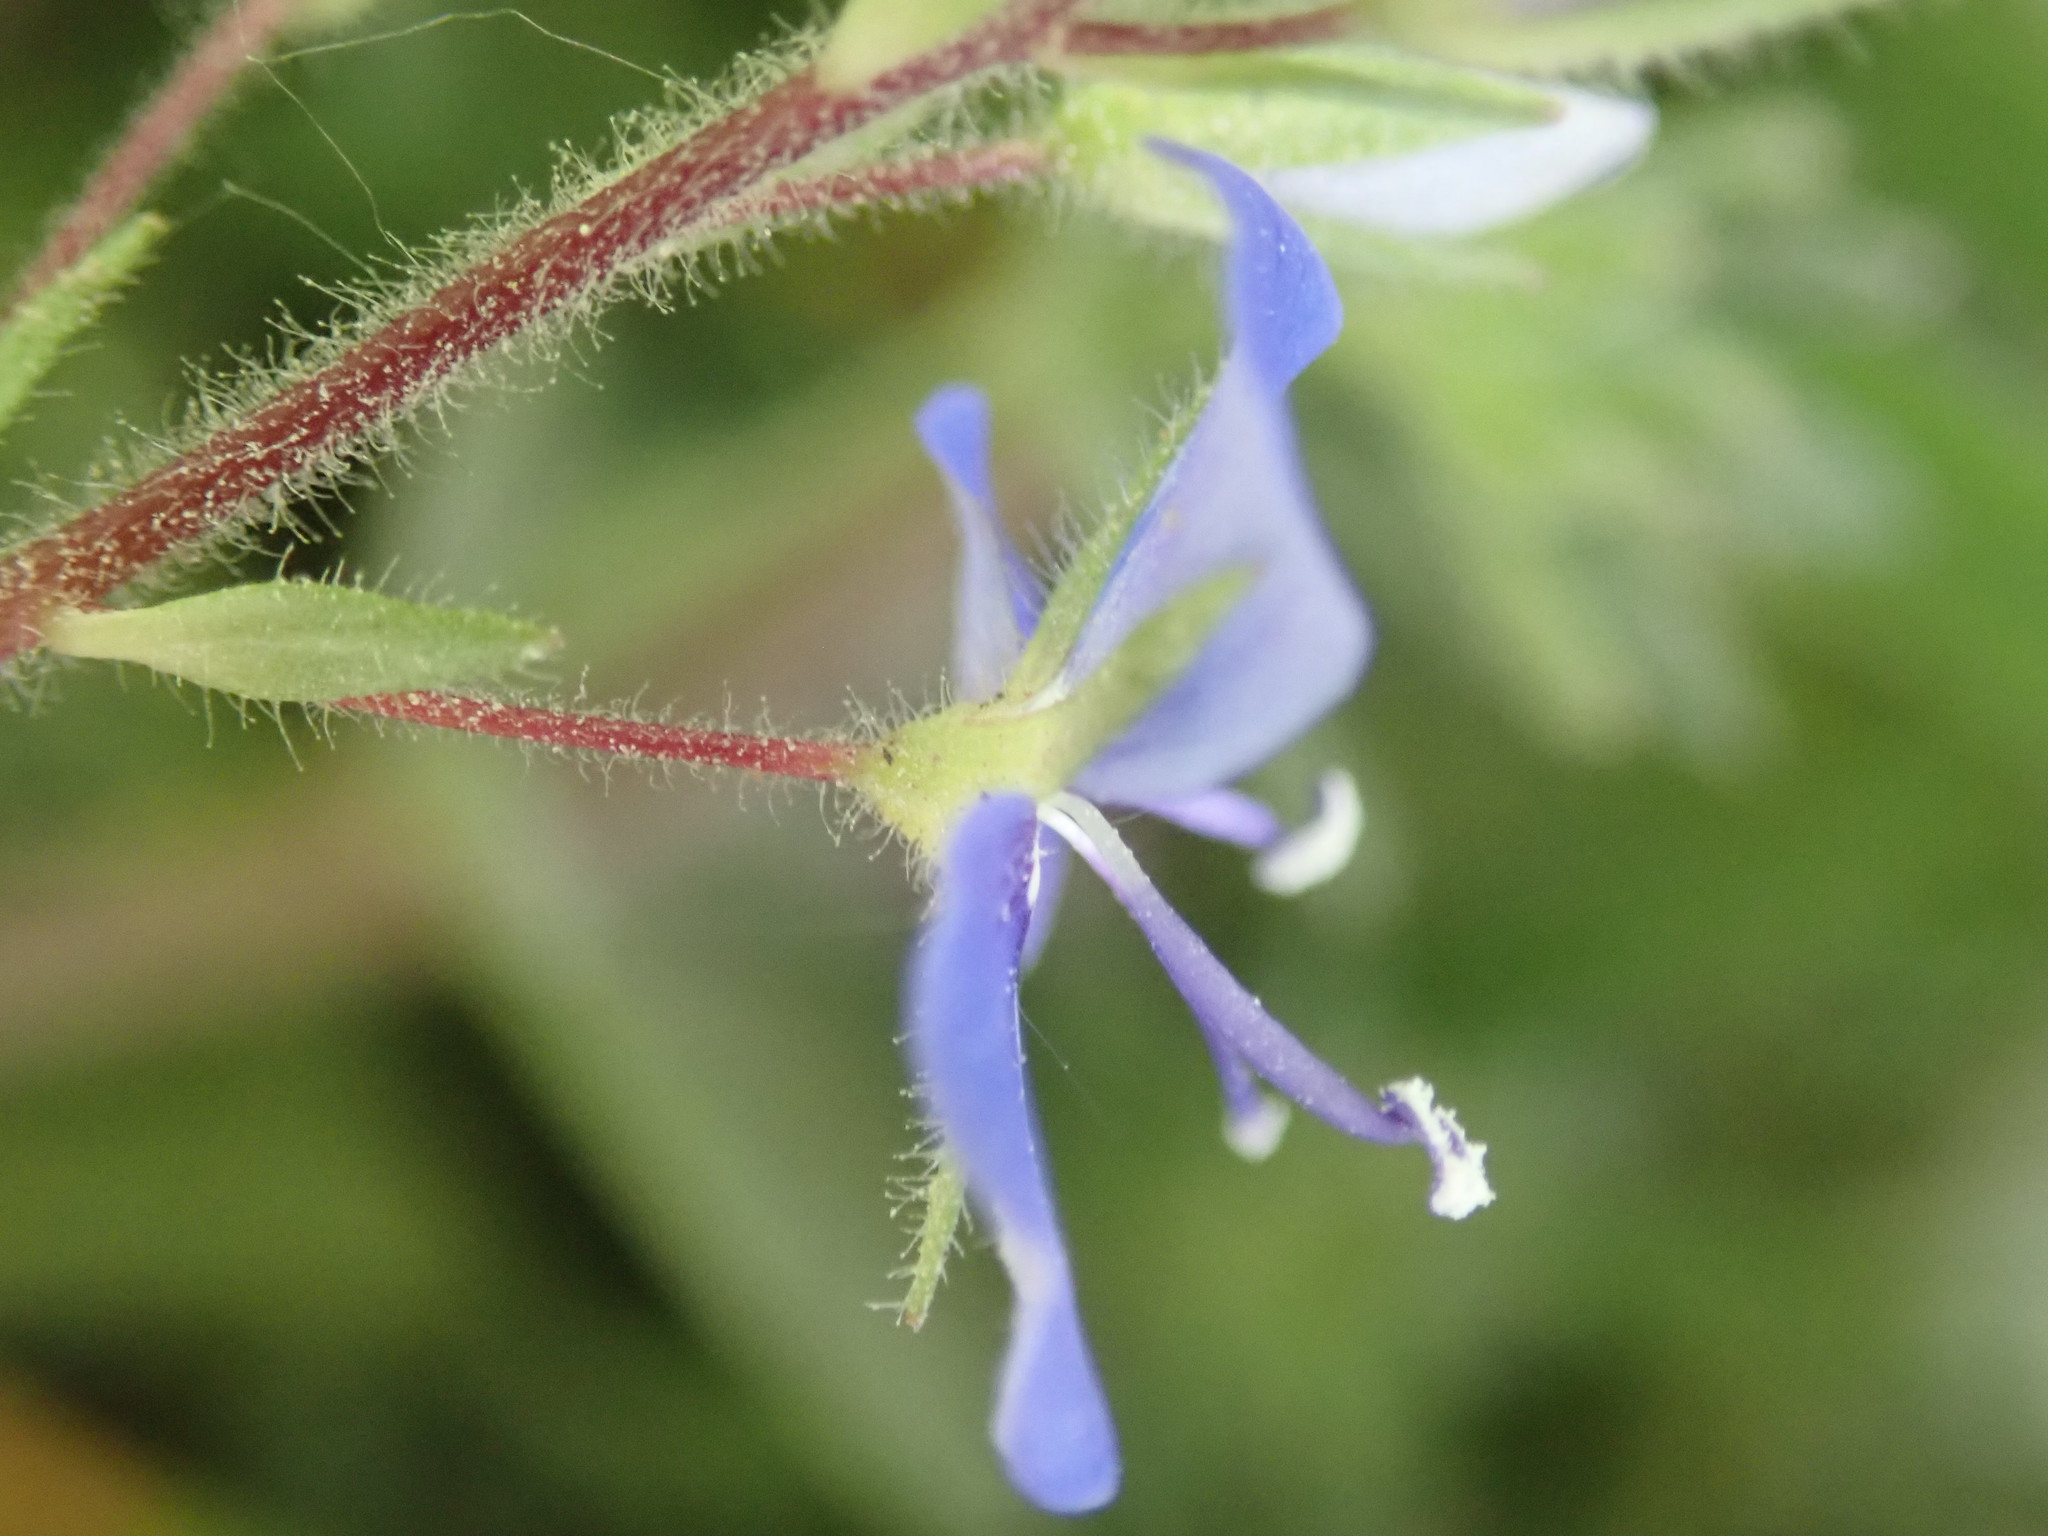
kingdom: Plantae
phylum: Tracheophyta
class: Magnoliopsida
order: Lamiales
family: Plantaginaceae
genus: Veronica
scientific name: Veronica chamaedrys
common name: Germander speedwell
